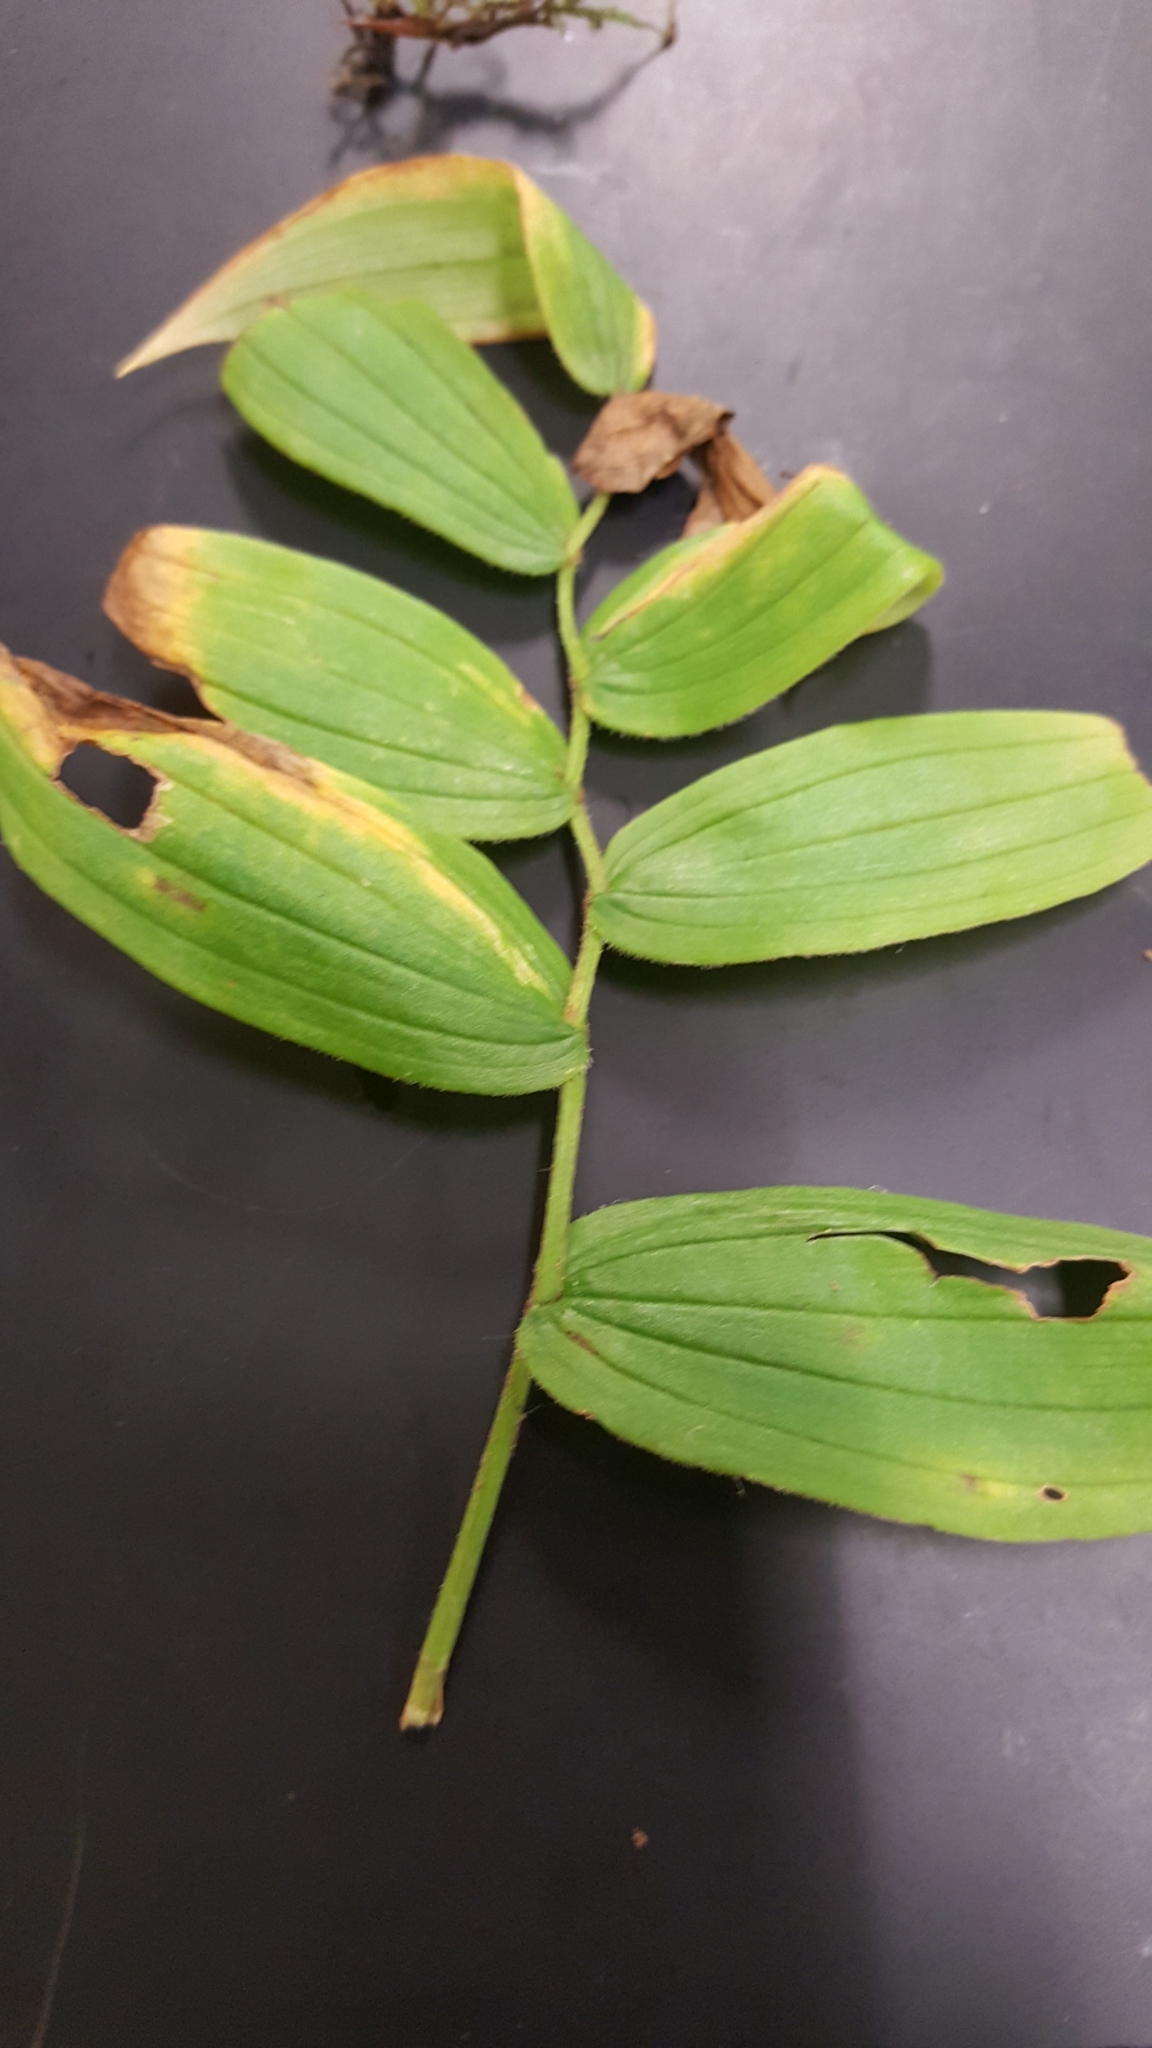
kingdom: Plantae
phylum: Tracheophyta
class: Liliopsida
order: Liliales
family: Liliaceae
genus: Streptopus
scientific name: Streptopus lanceolatus
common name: Rose mandarin
